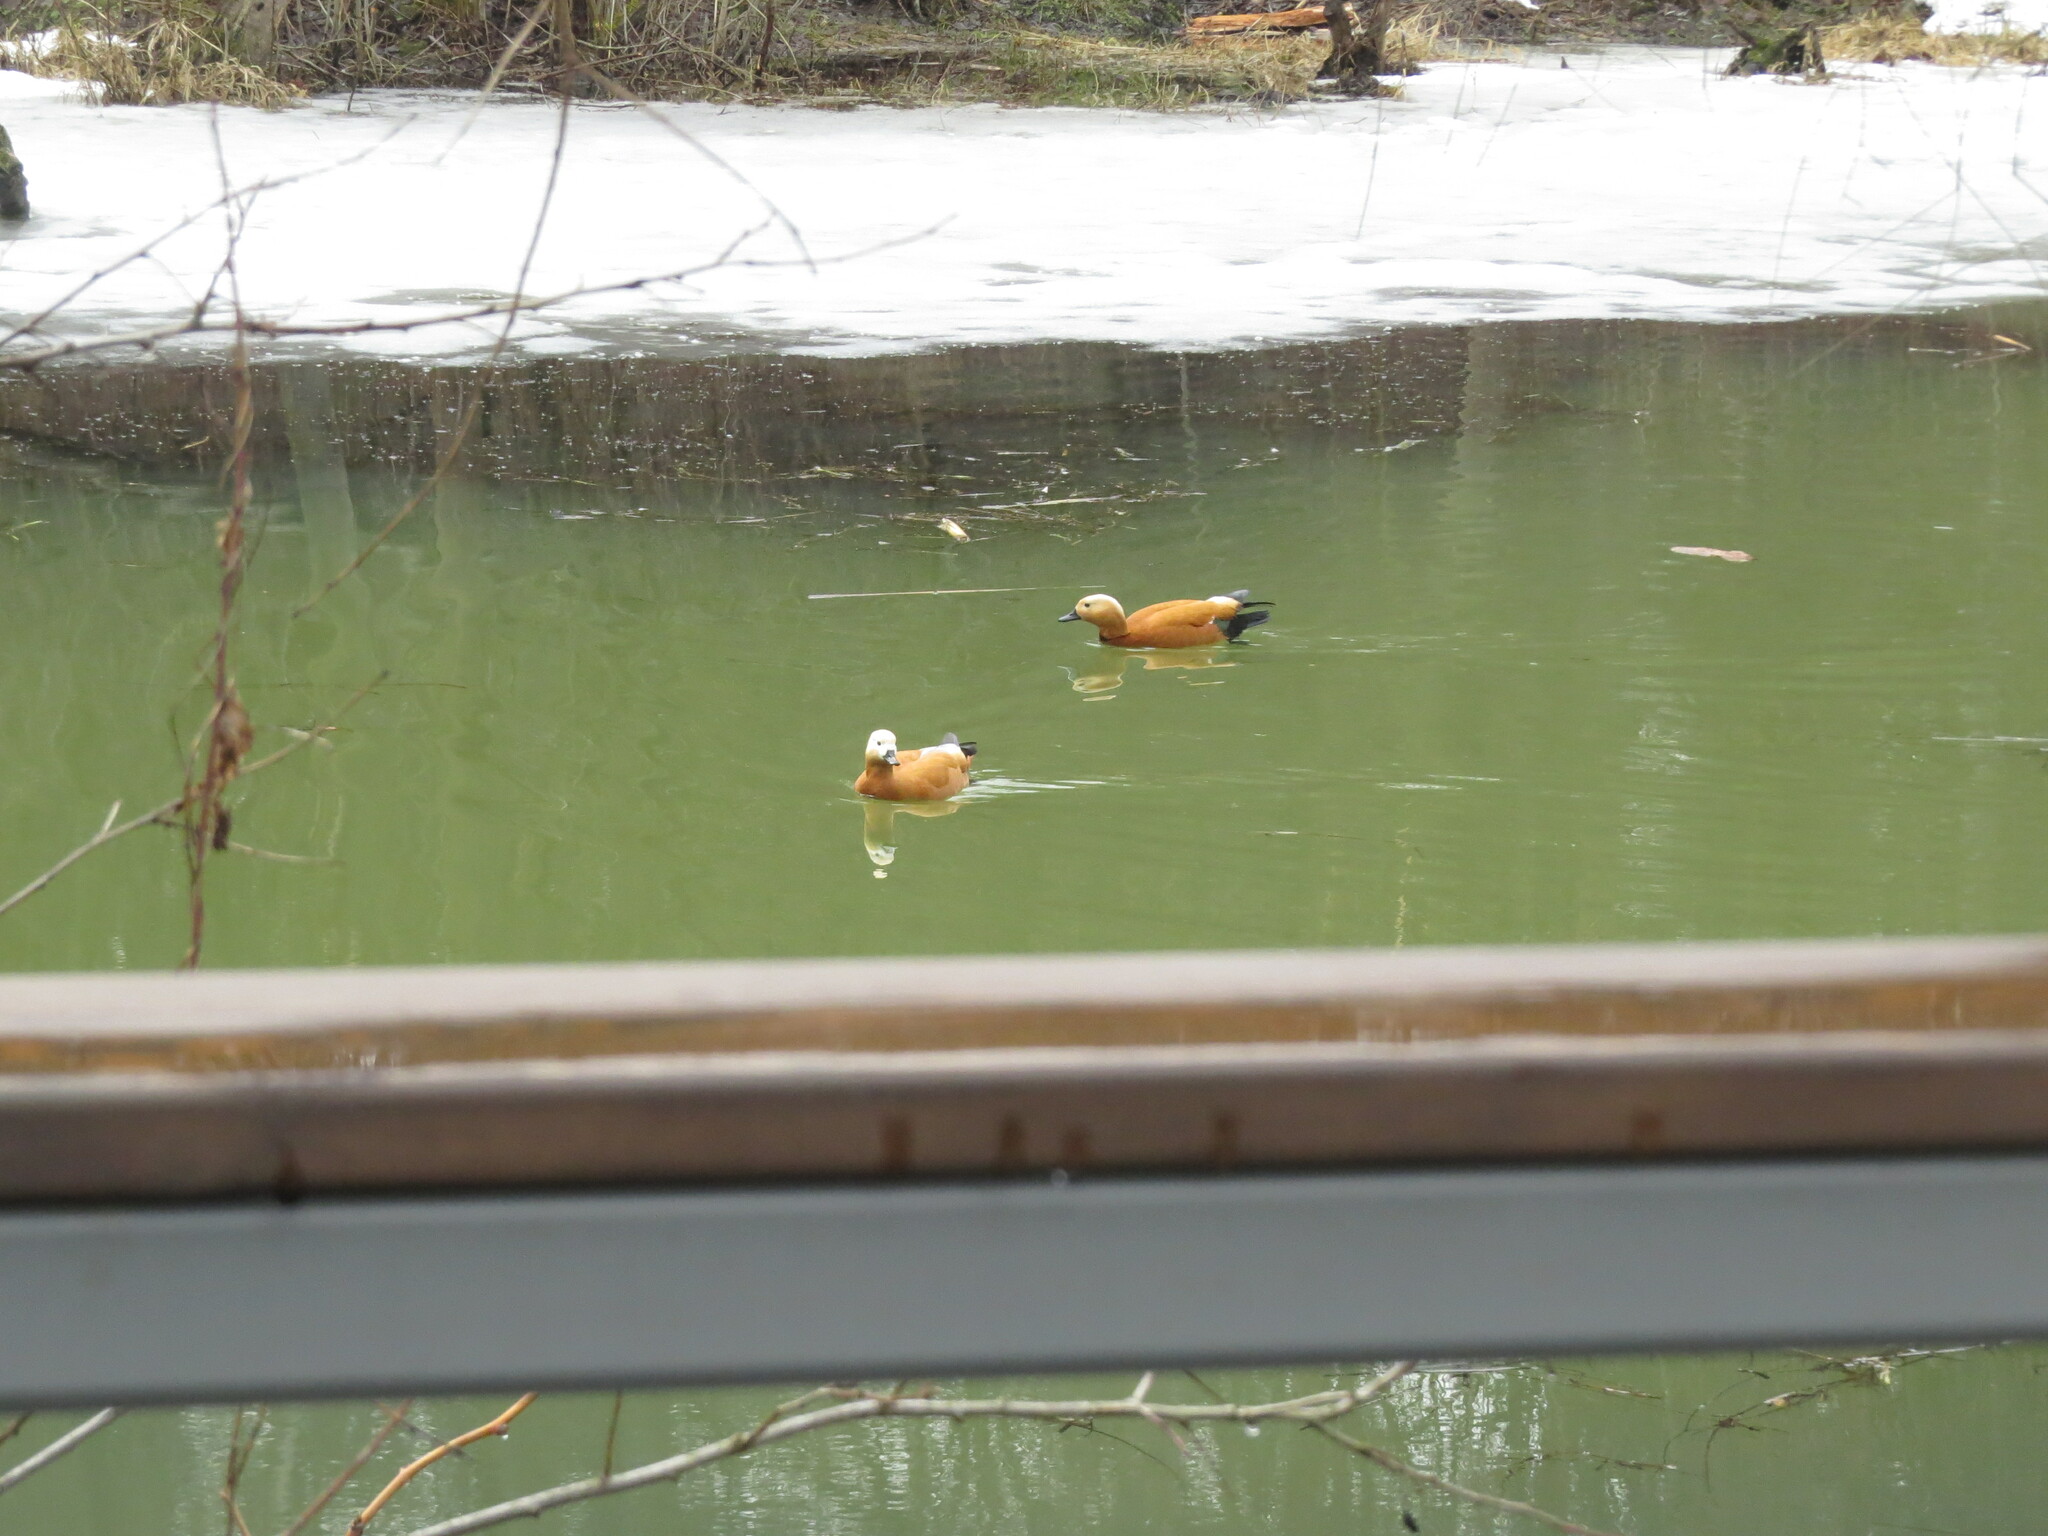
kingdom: Animalia
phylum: Chordata
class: Aves
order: Anseriformes
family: Anatidae
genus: Tadorna
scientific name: Tadorna ferruginea
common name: Ruddy shelduck
